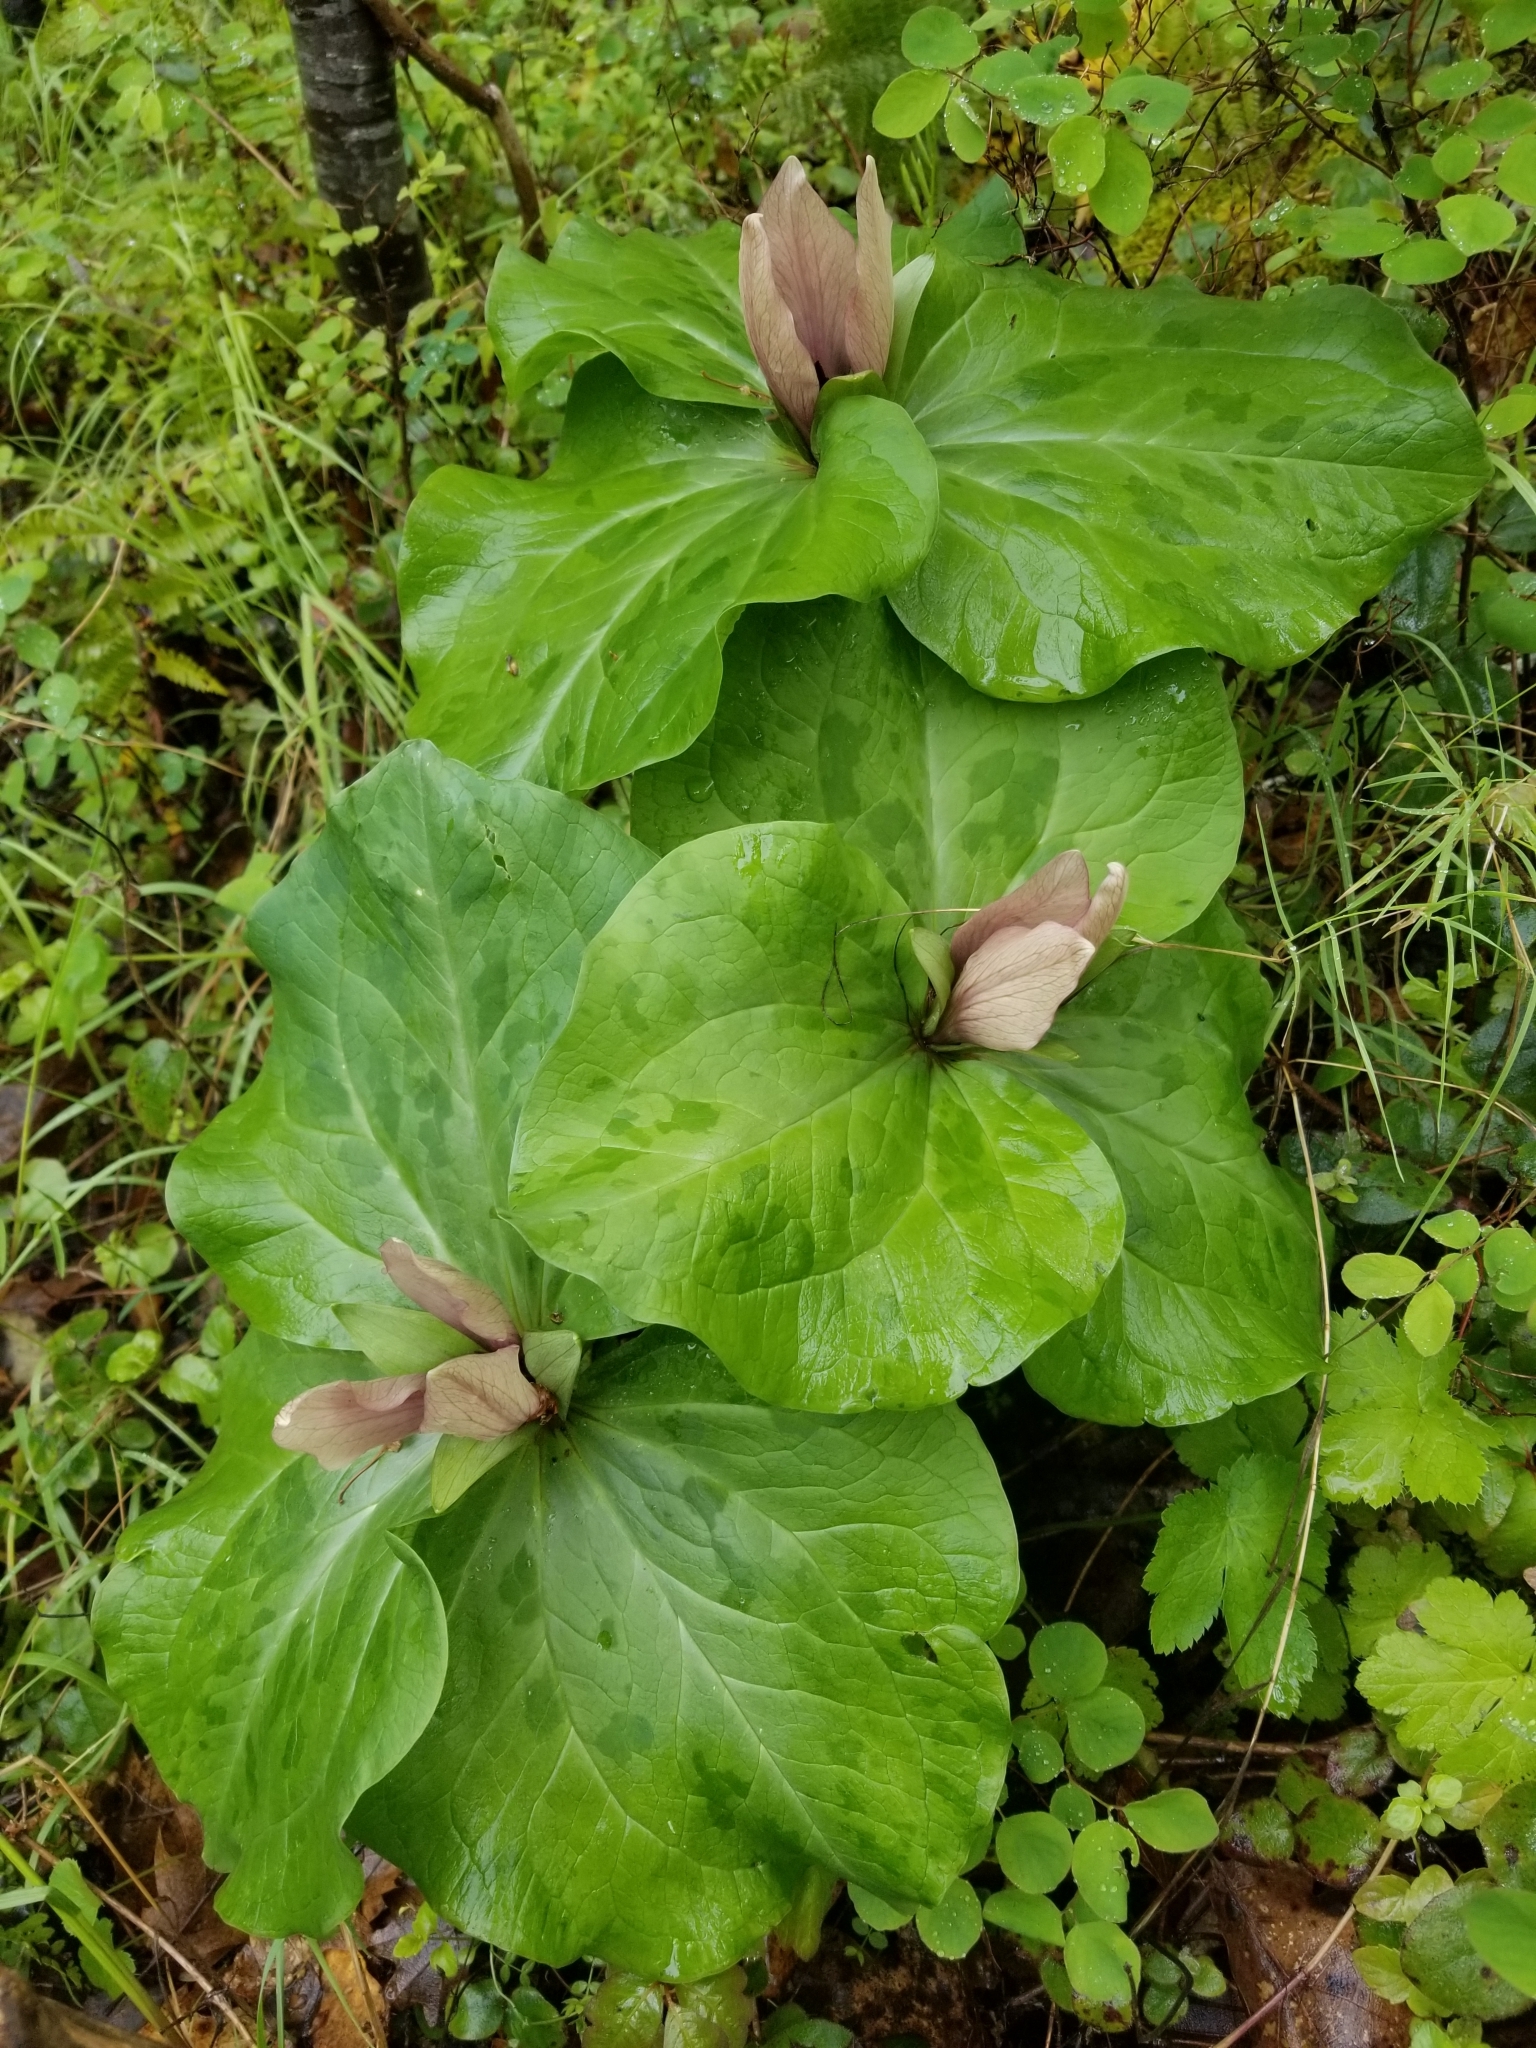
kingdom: Plantae
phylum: Tracheophyta
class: Liliopsida
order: Liliales
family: Melanthiaceae
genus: Trillium
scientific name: Trillium chloropetalum
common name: Giant trillium
